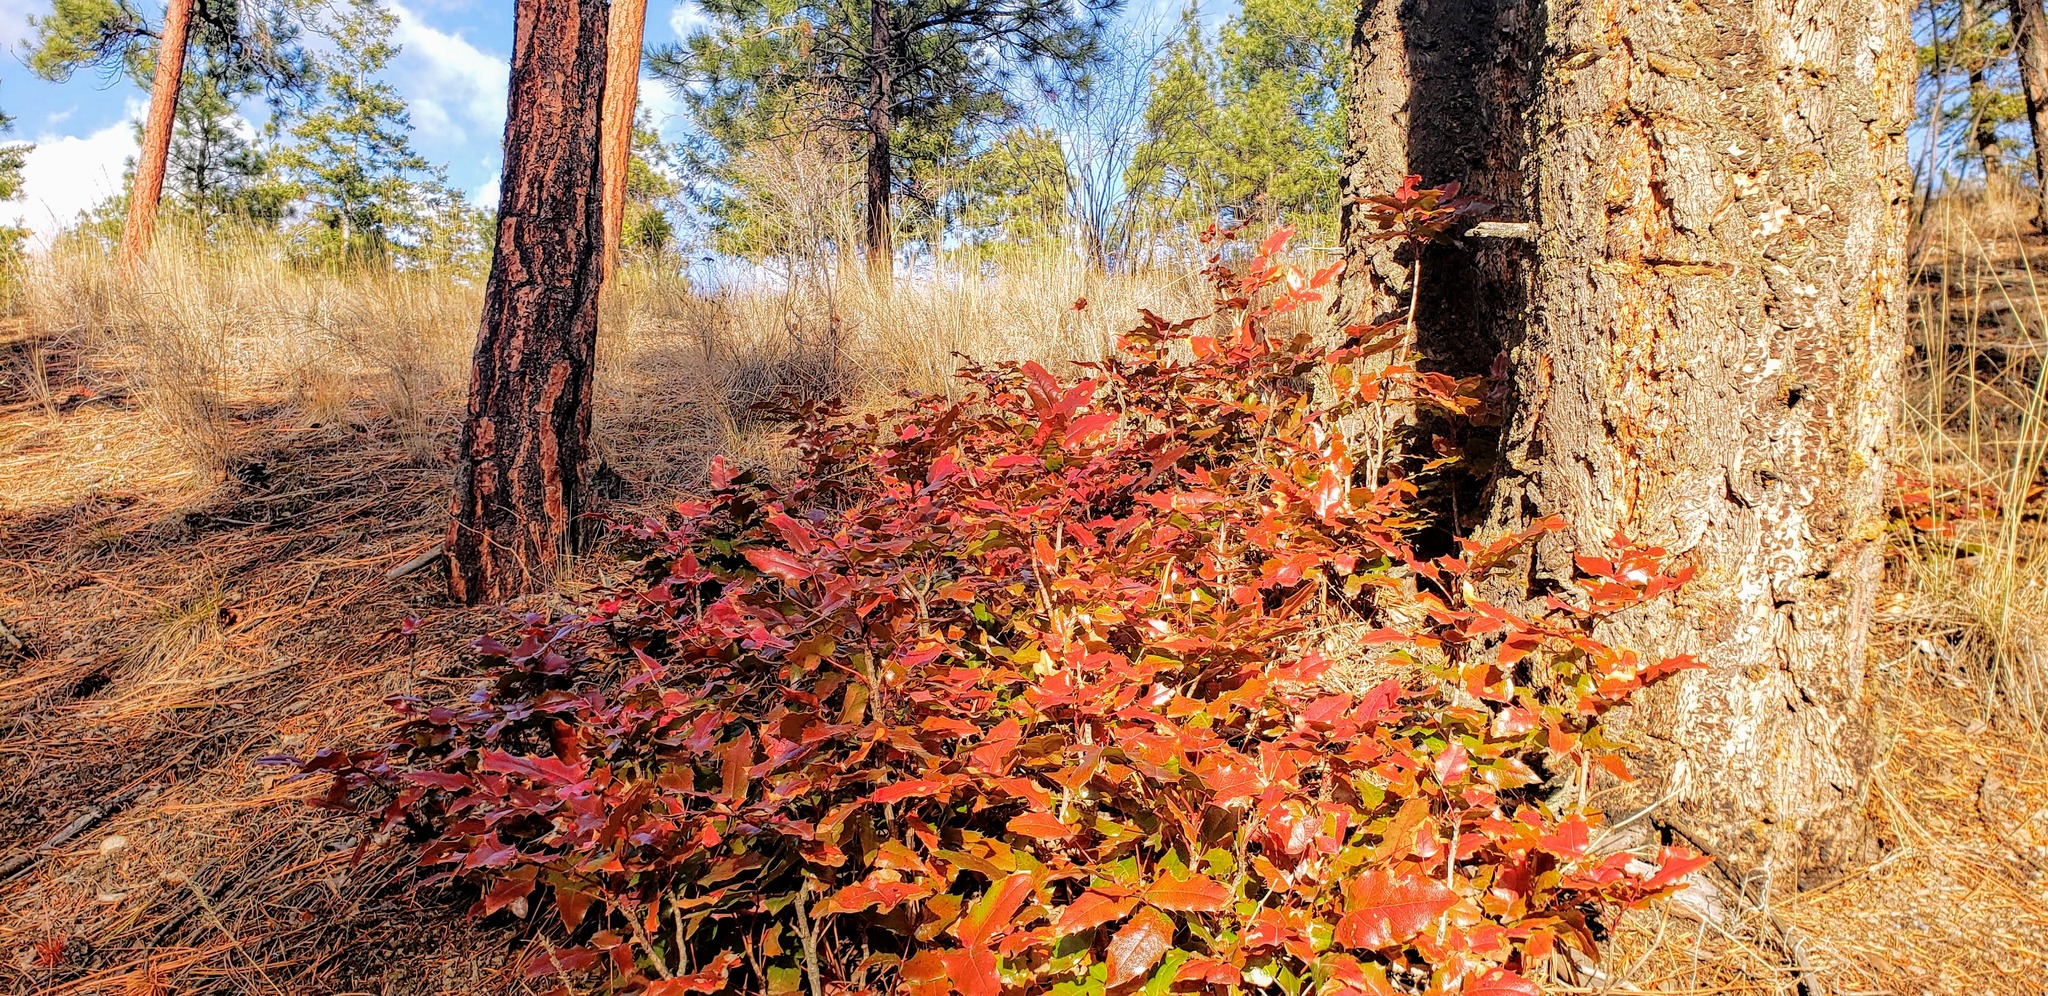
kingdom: Plantae
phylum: Tracheophyta
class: Magnoliopsida
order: Ranunculales
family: Berberidaceae
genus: Mahonia
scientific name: Mahonia aquifolium
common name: Oregon-grape
